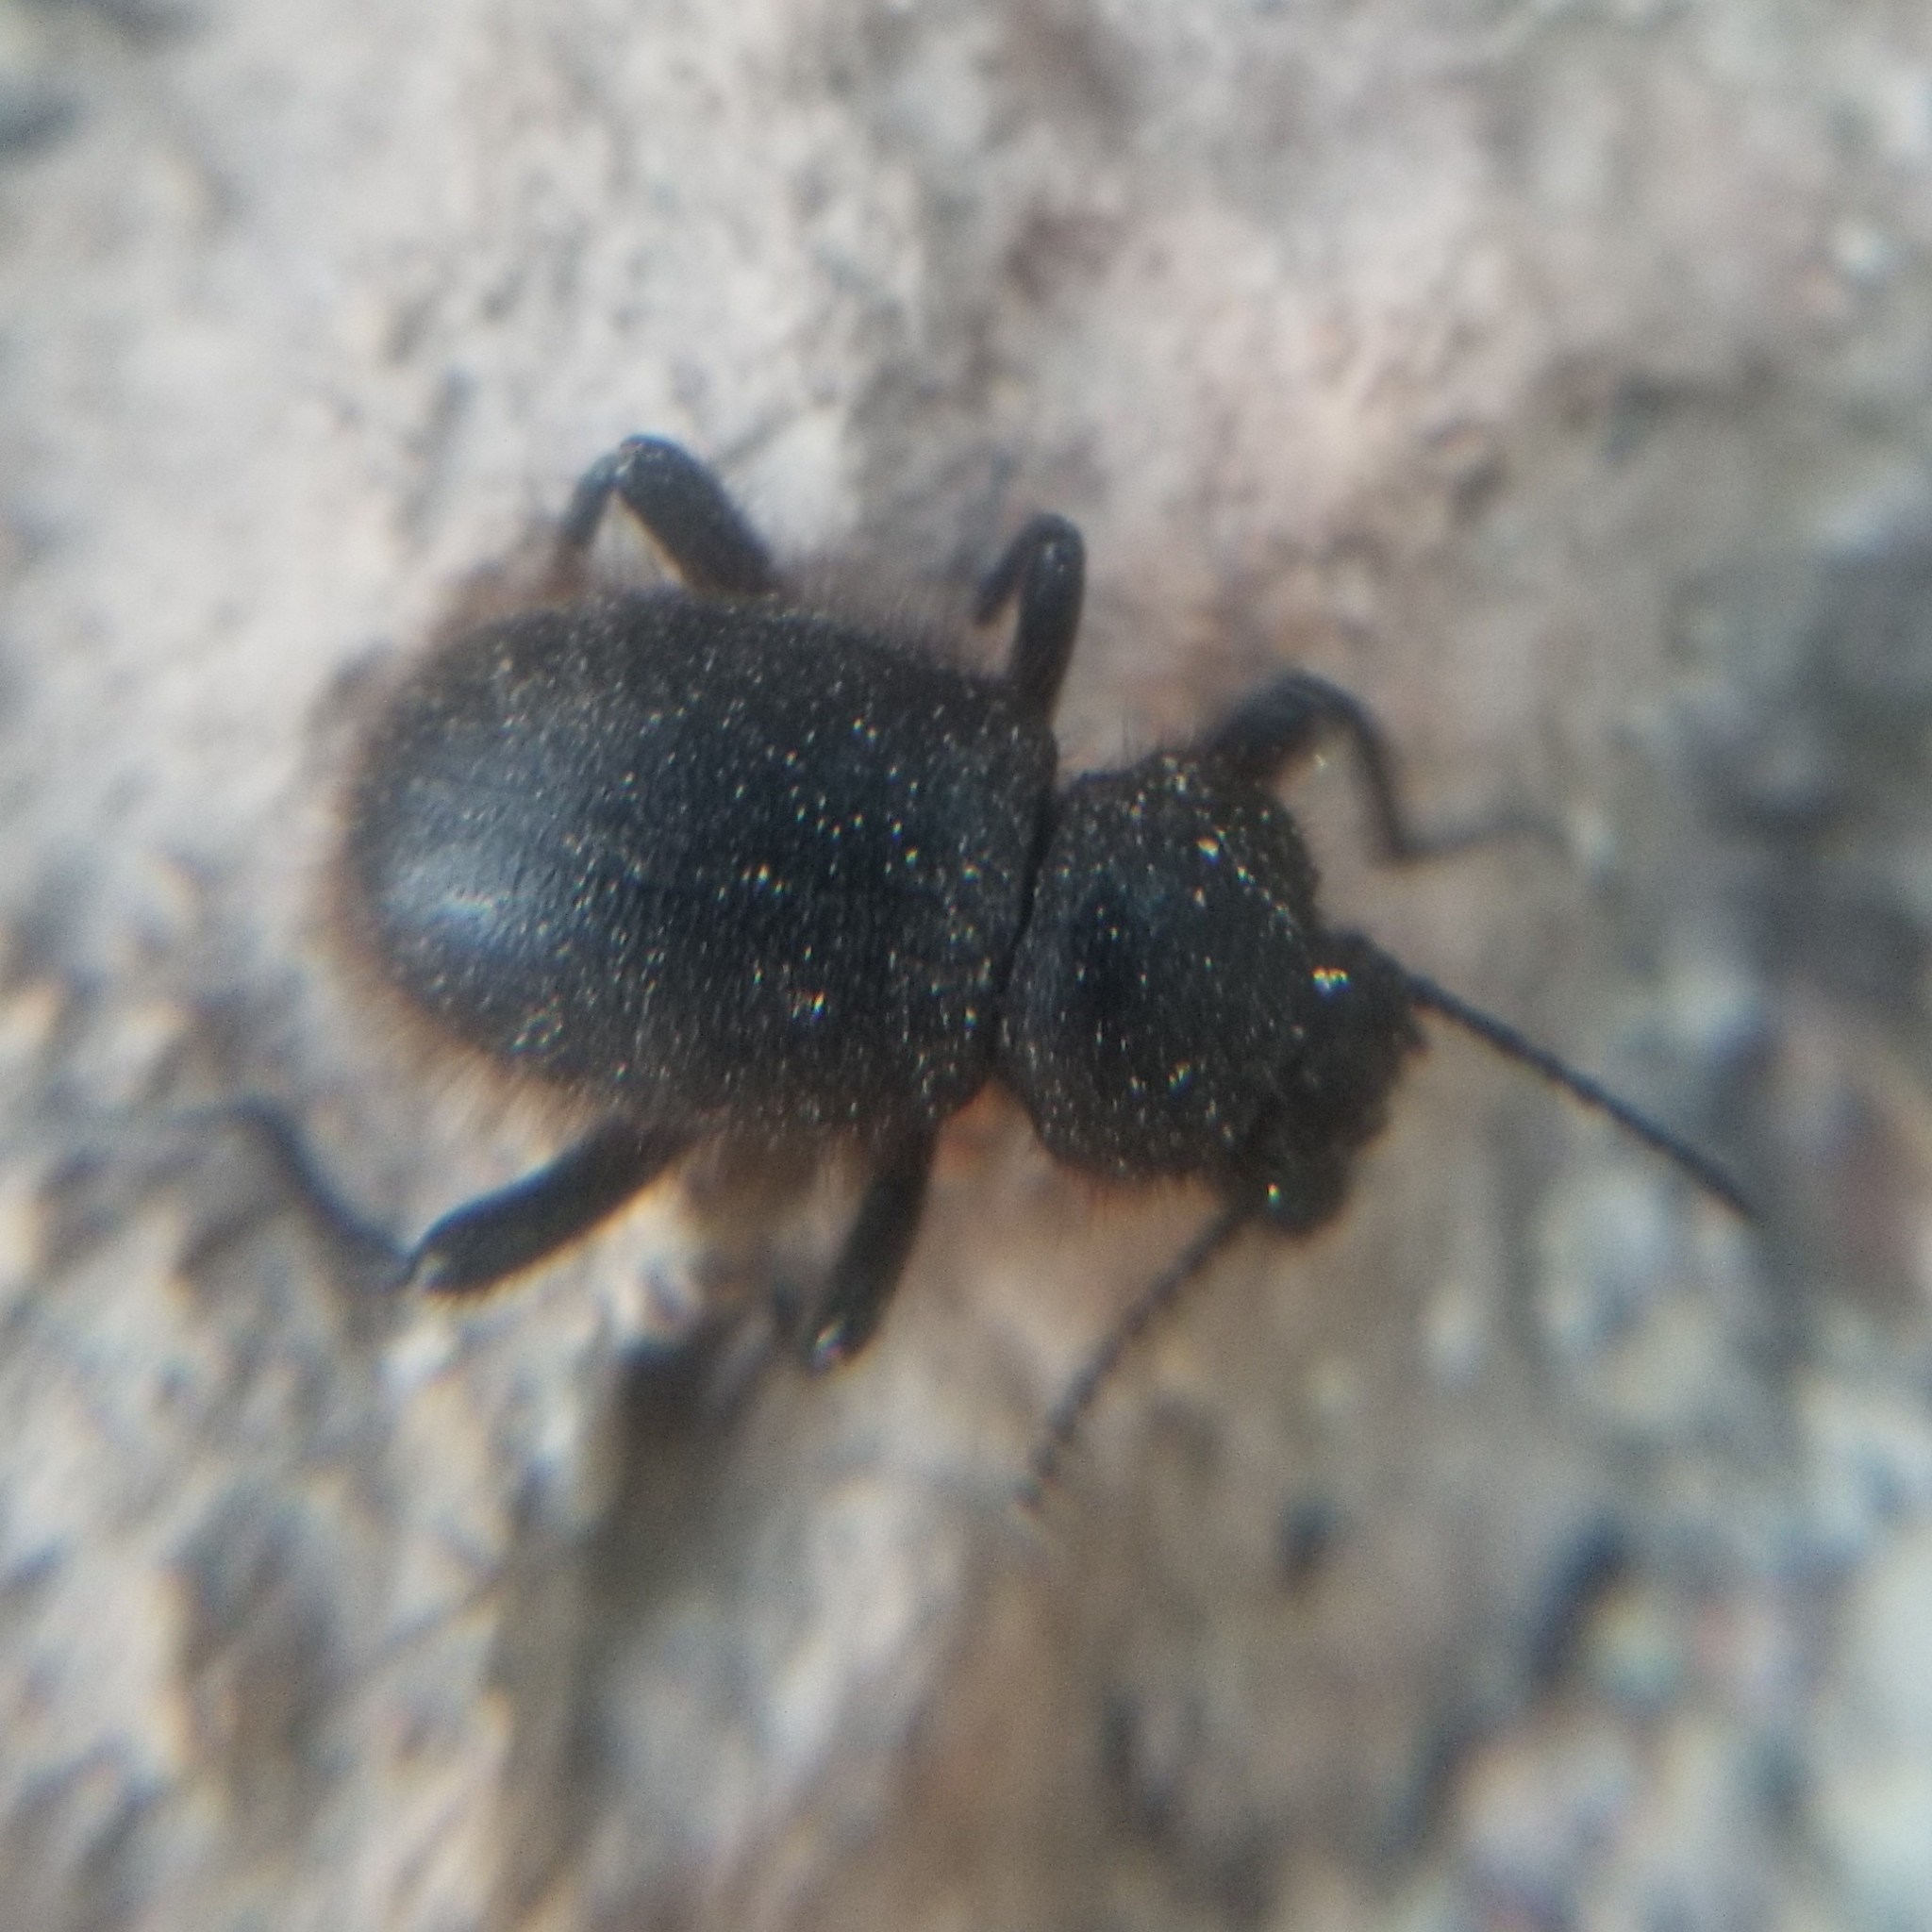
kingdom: Animalia
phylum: Arthropoda
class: Insecta
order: Coleoptera
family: Tenebrionidae
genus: Eleodes
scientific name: Eleodes osculans
